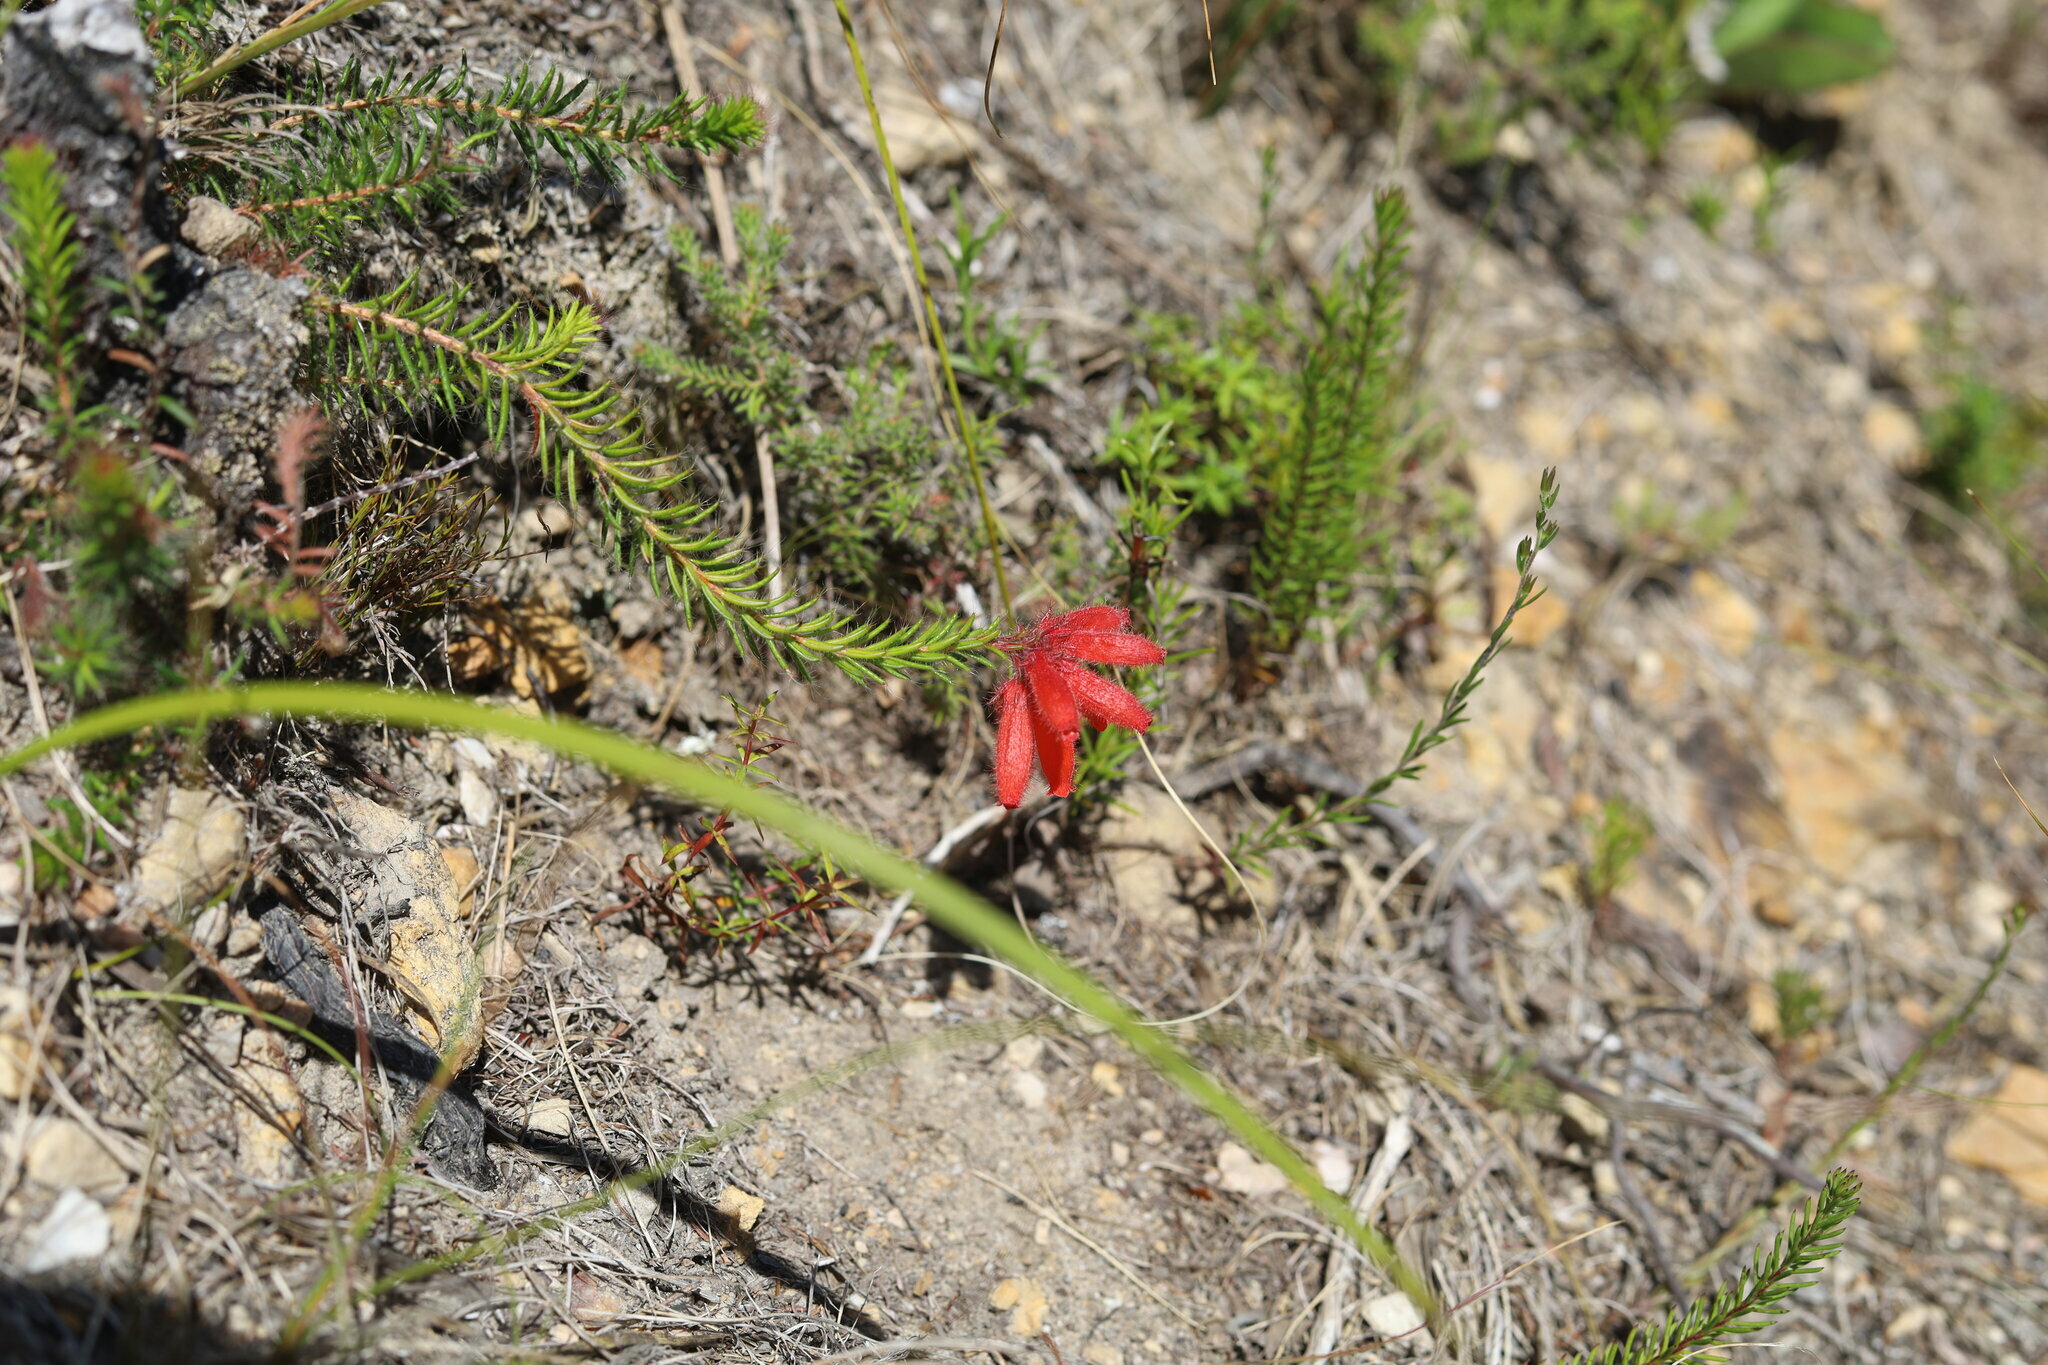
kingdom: Plantae
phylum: Tracheophyta
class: Magnoliopsida
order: Ericales
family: Ericaceae
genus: Erica
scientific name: Erica cerinthoides
